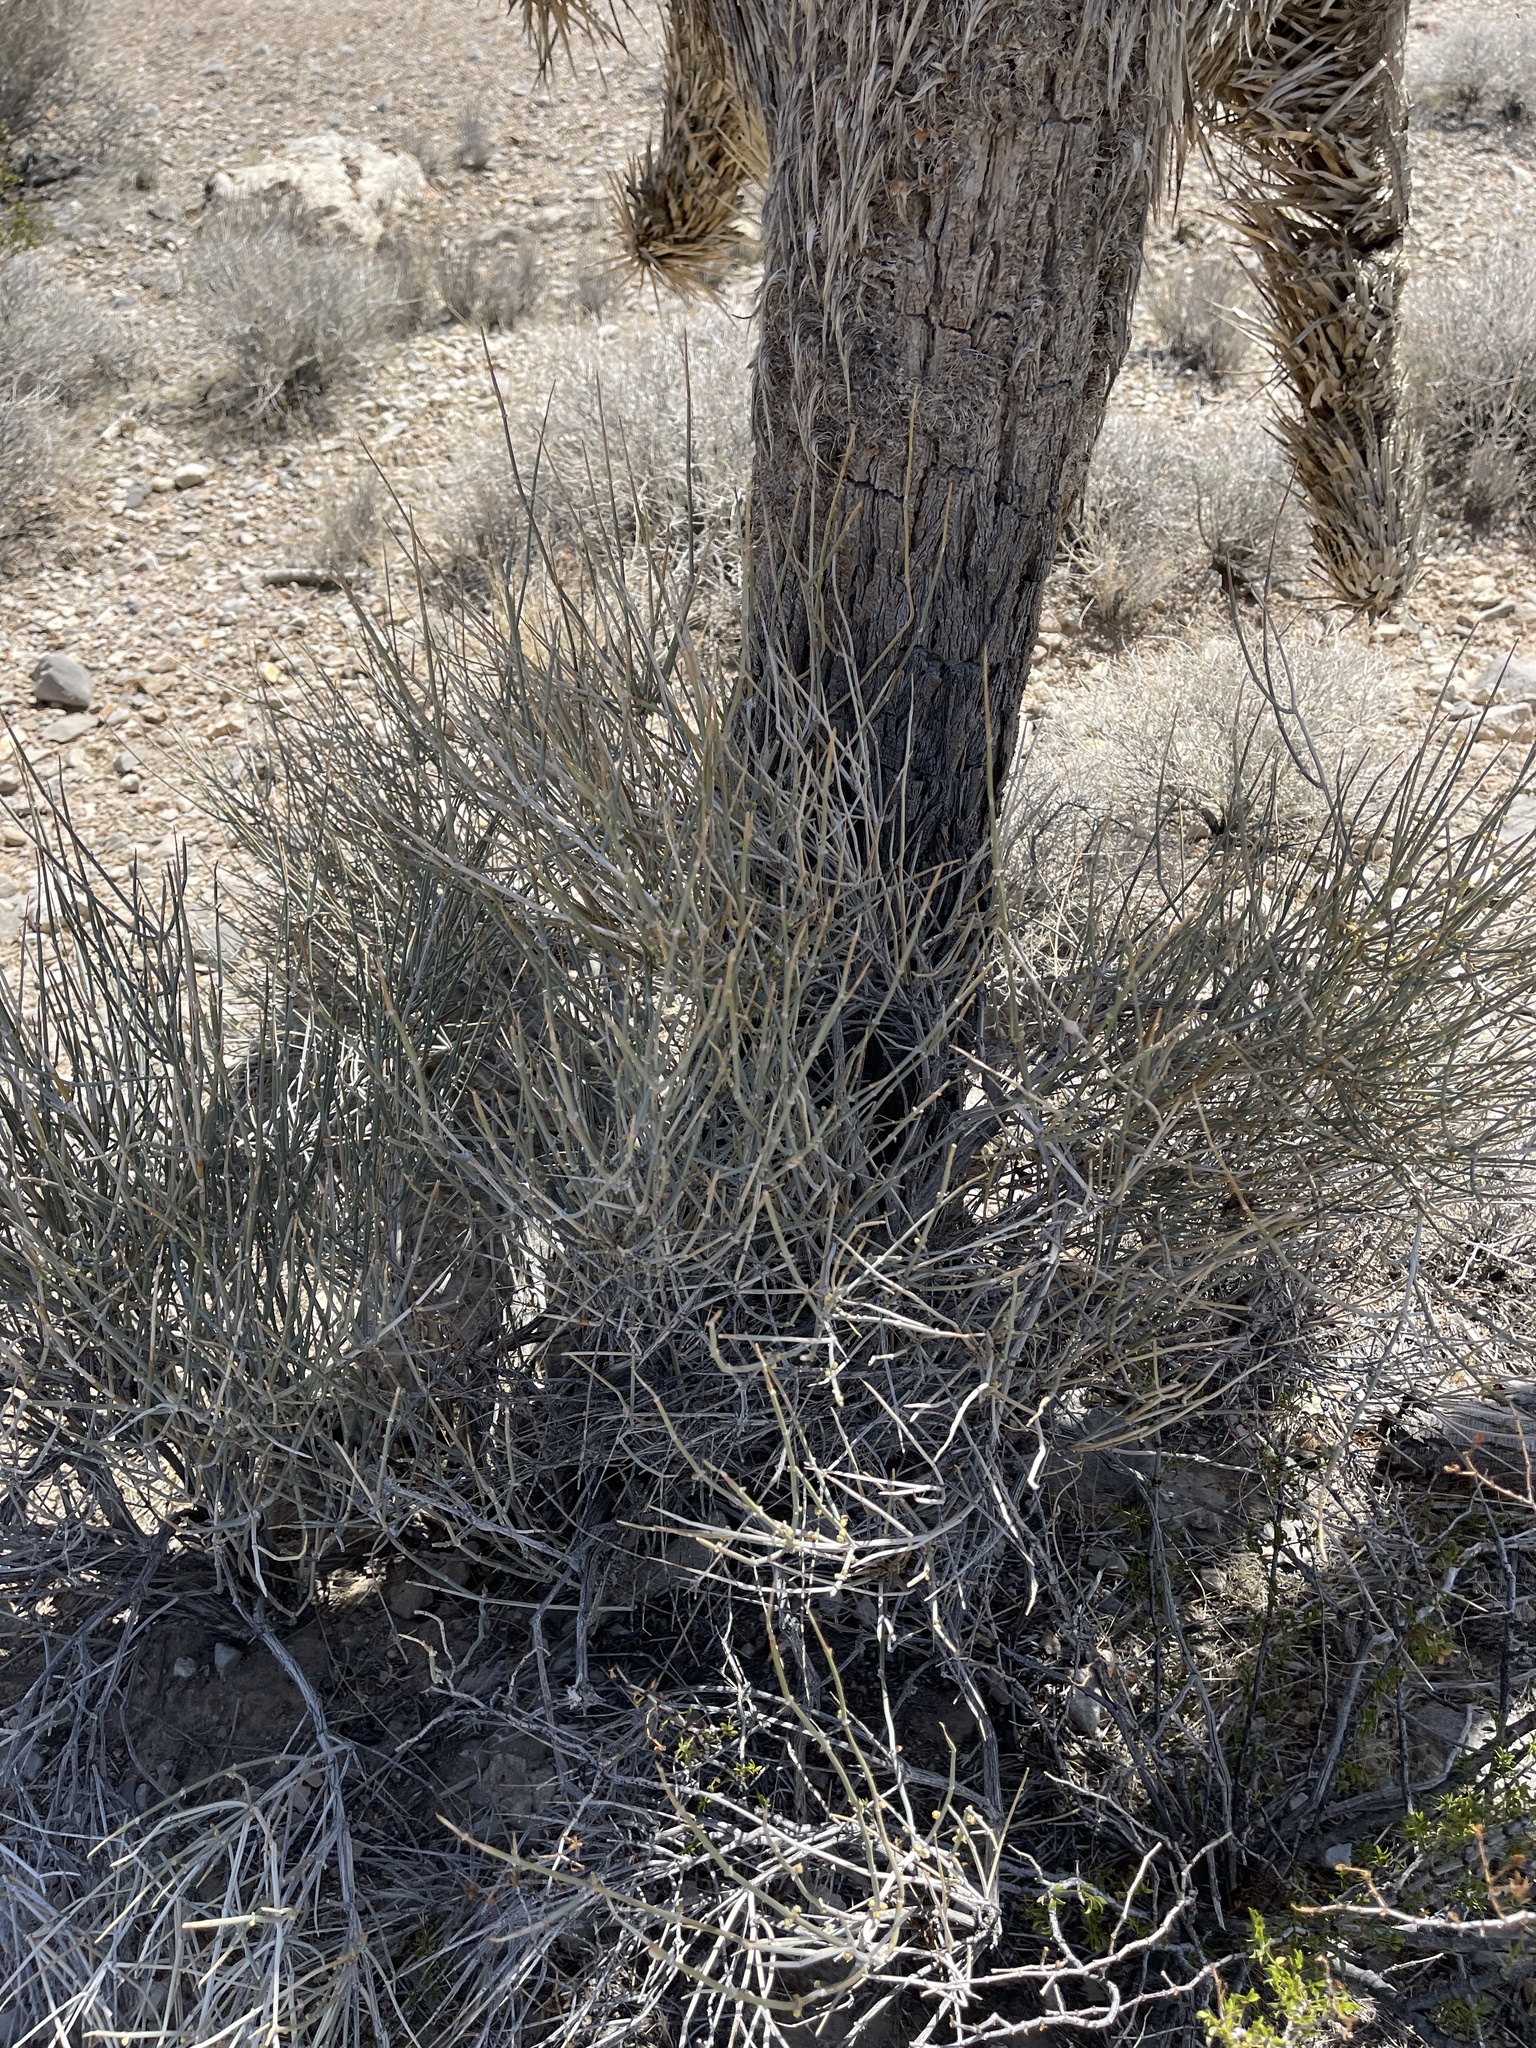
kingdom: Plantae
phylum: Tracheophyta
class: Gnetopsida
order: Ephedrales
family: Ephedraceae
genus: Ephedra
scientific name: Ephedra nevadensis
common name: Gray ephedra
